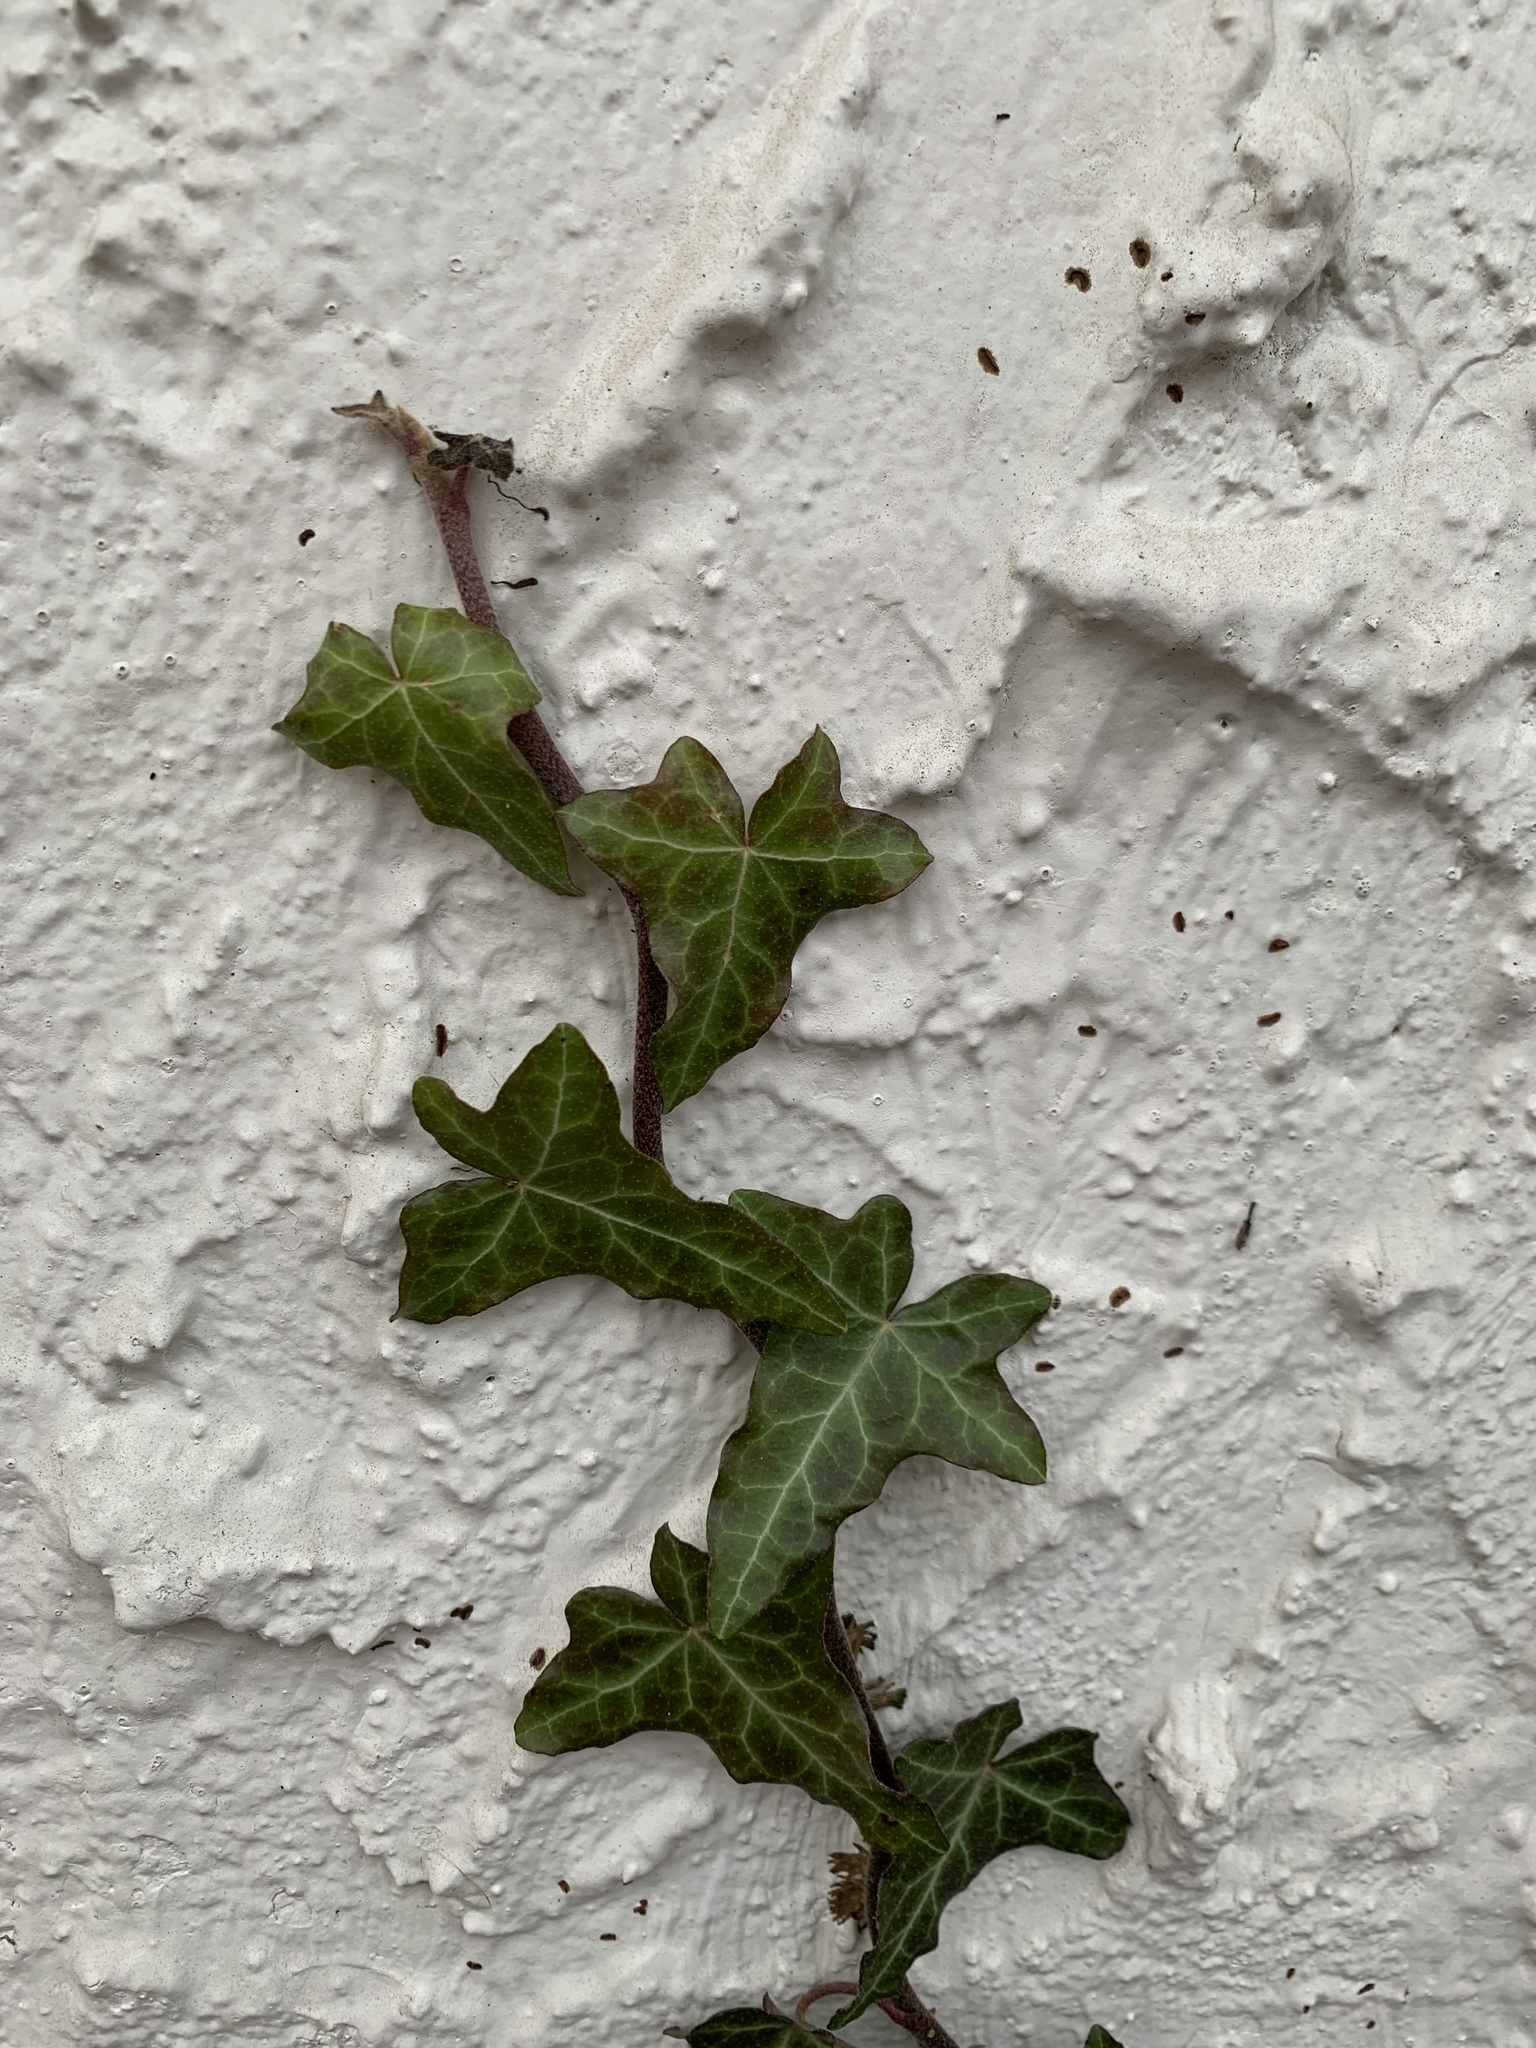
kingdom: Plantae
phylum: Tracheophyta
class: Magnoliopsida
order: Apiales
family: Araliaceae
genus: Hedera
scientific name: Hedera
